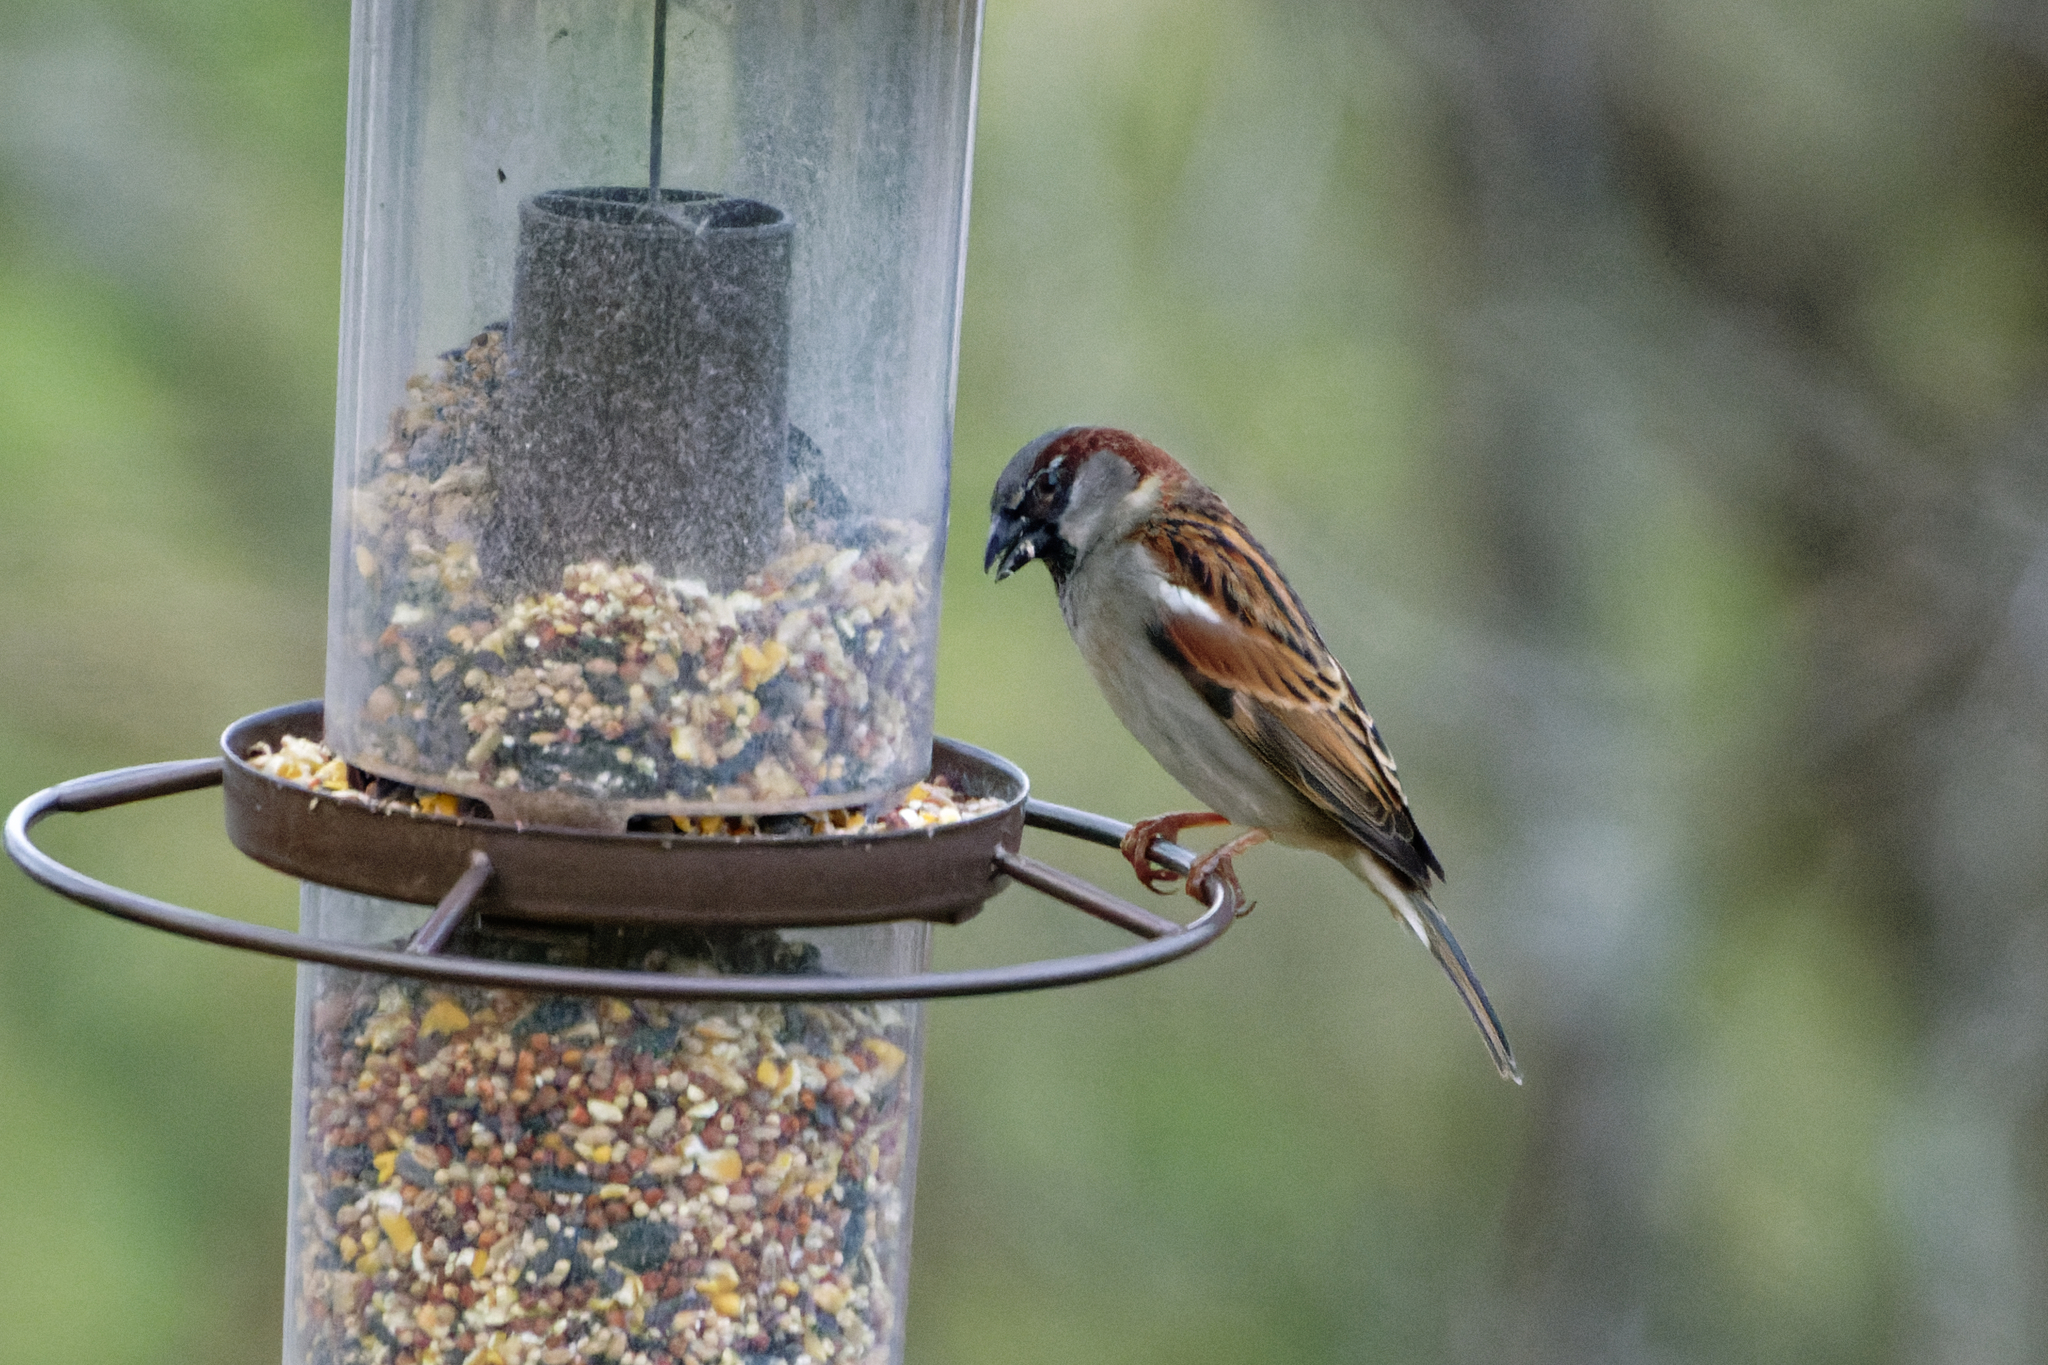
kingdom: Animalia
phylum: Chordata
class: Aves
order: Passeriformes
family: Passeridae
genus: Passer
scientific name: Passer domesticus
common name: House sparrow
